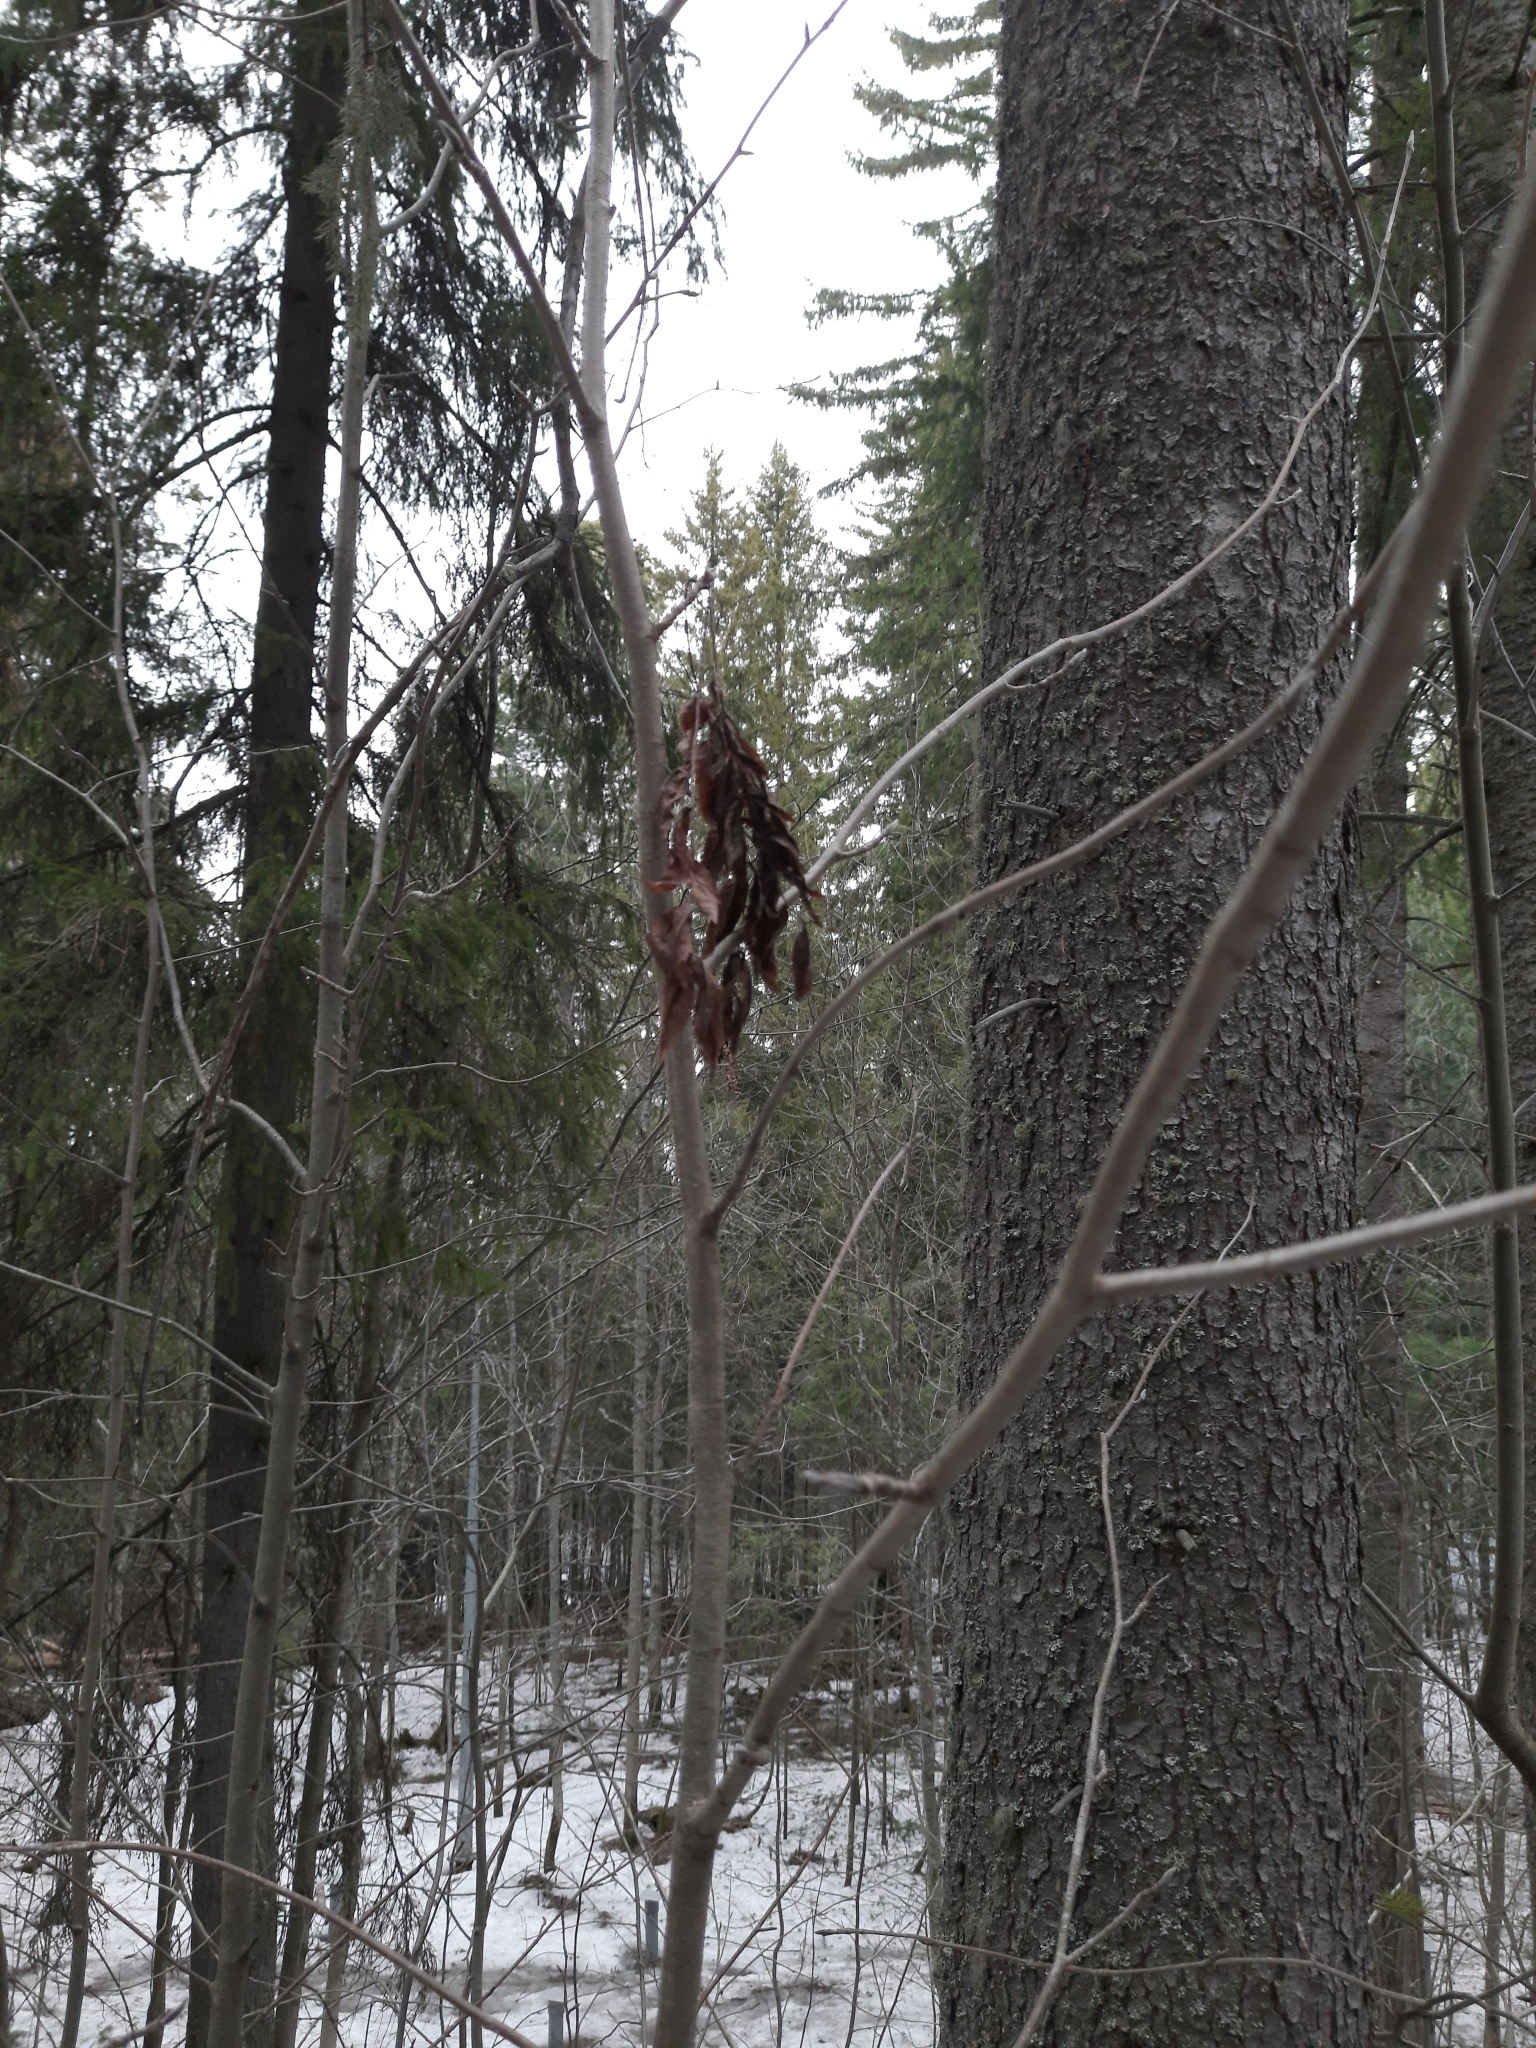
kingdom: Plantae
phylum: Tracheophyta
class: Magnoliopsida
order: Rosales
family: Rosaceae
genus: Sorbus
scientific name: Sorbus aucuparia
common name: Rowan
